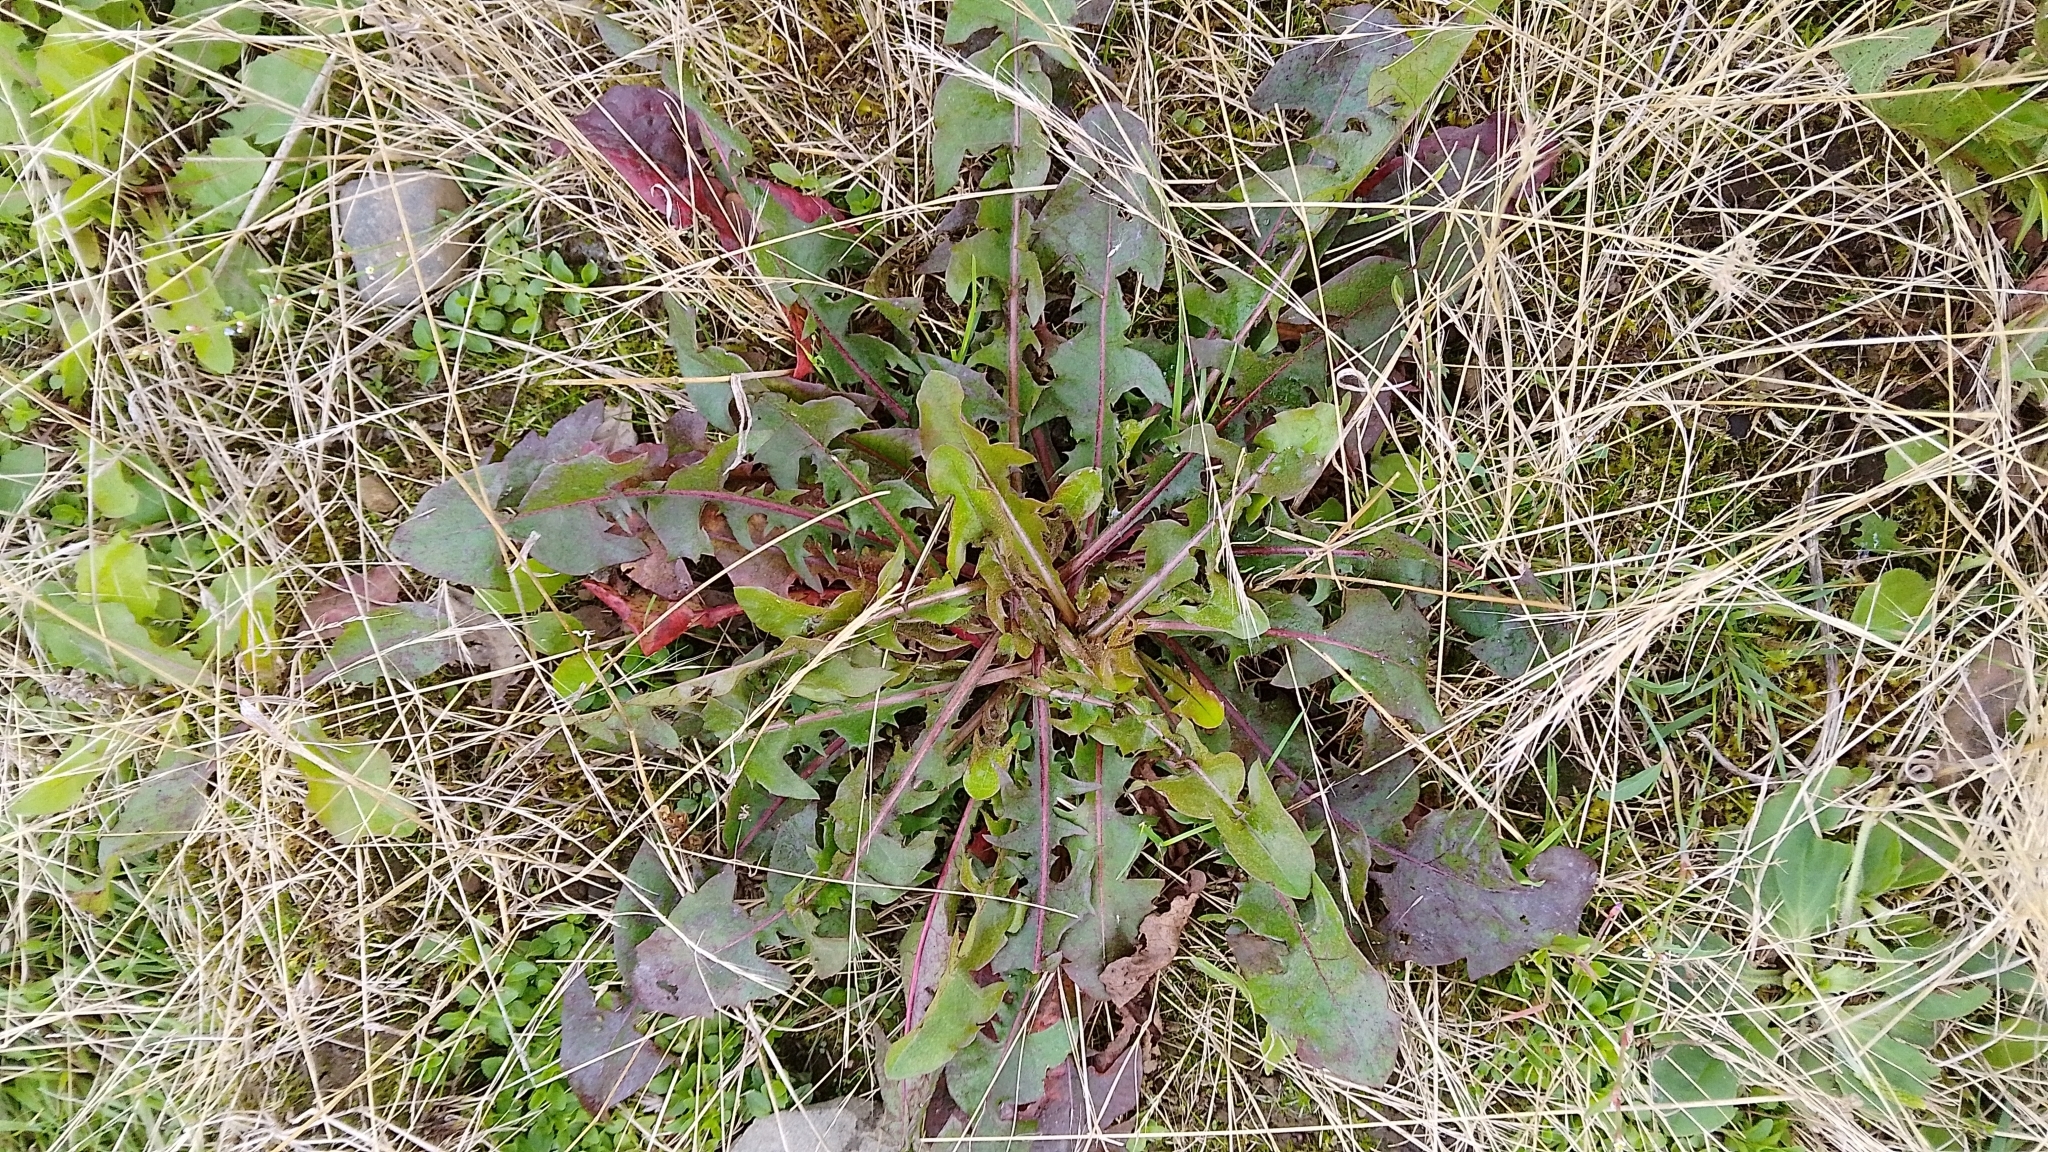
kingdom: Plantae
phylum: Tracheophyta
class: Magnoliopsida
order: Asterales
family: Asteraceae
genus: Taraxacum
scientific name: Taraxacum officinale
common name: Common dandelion
